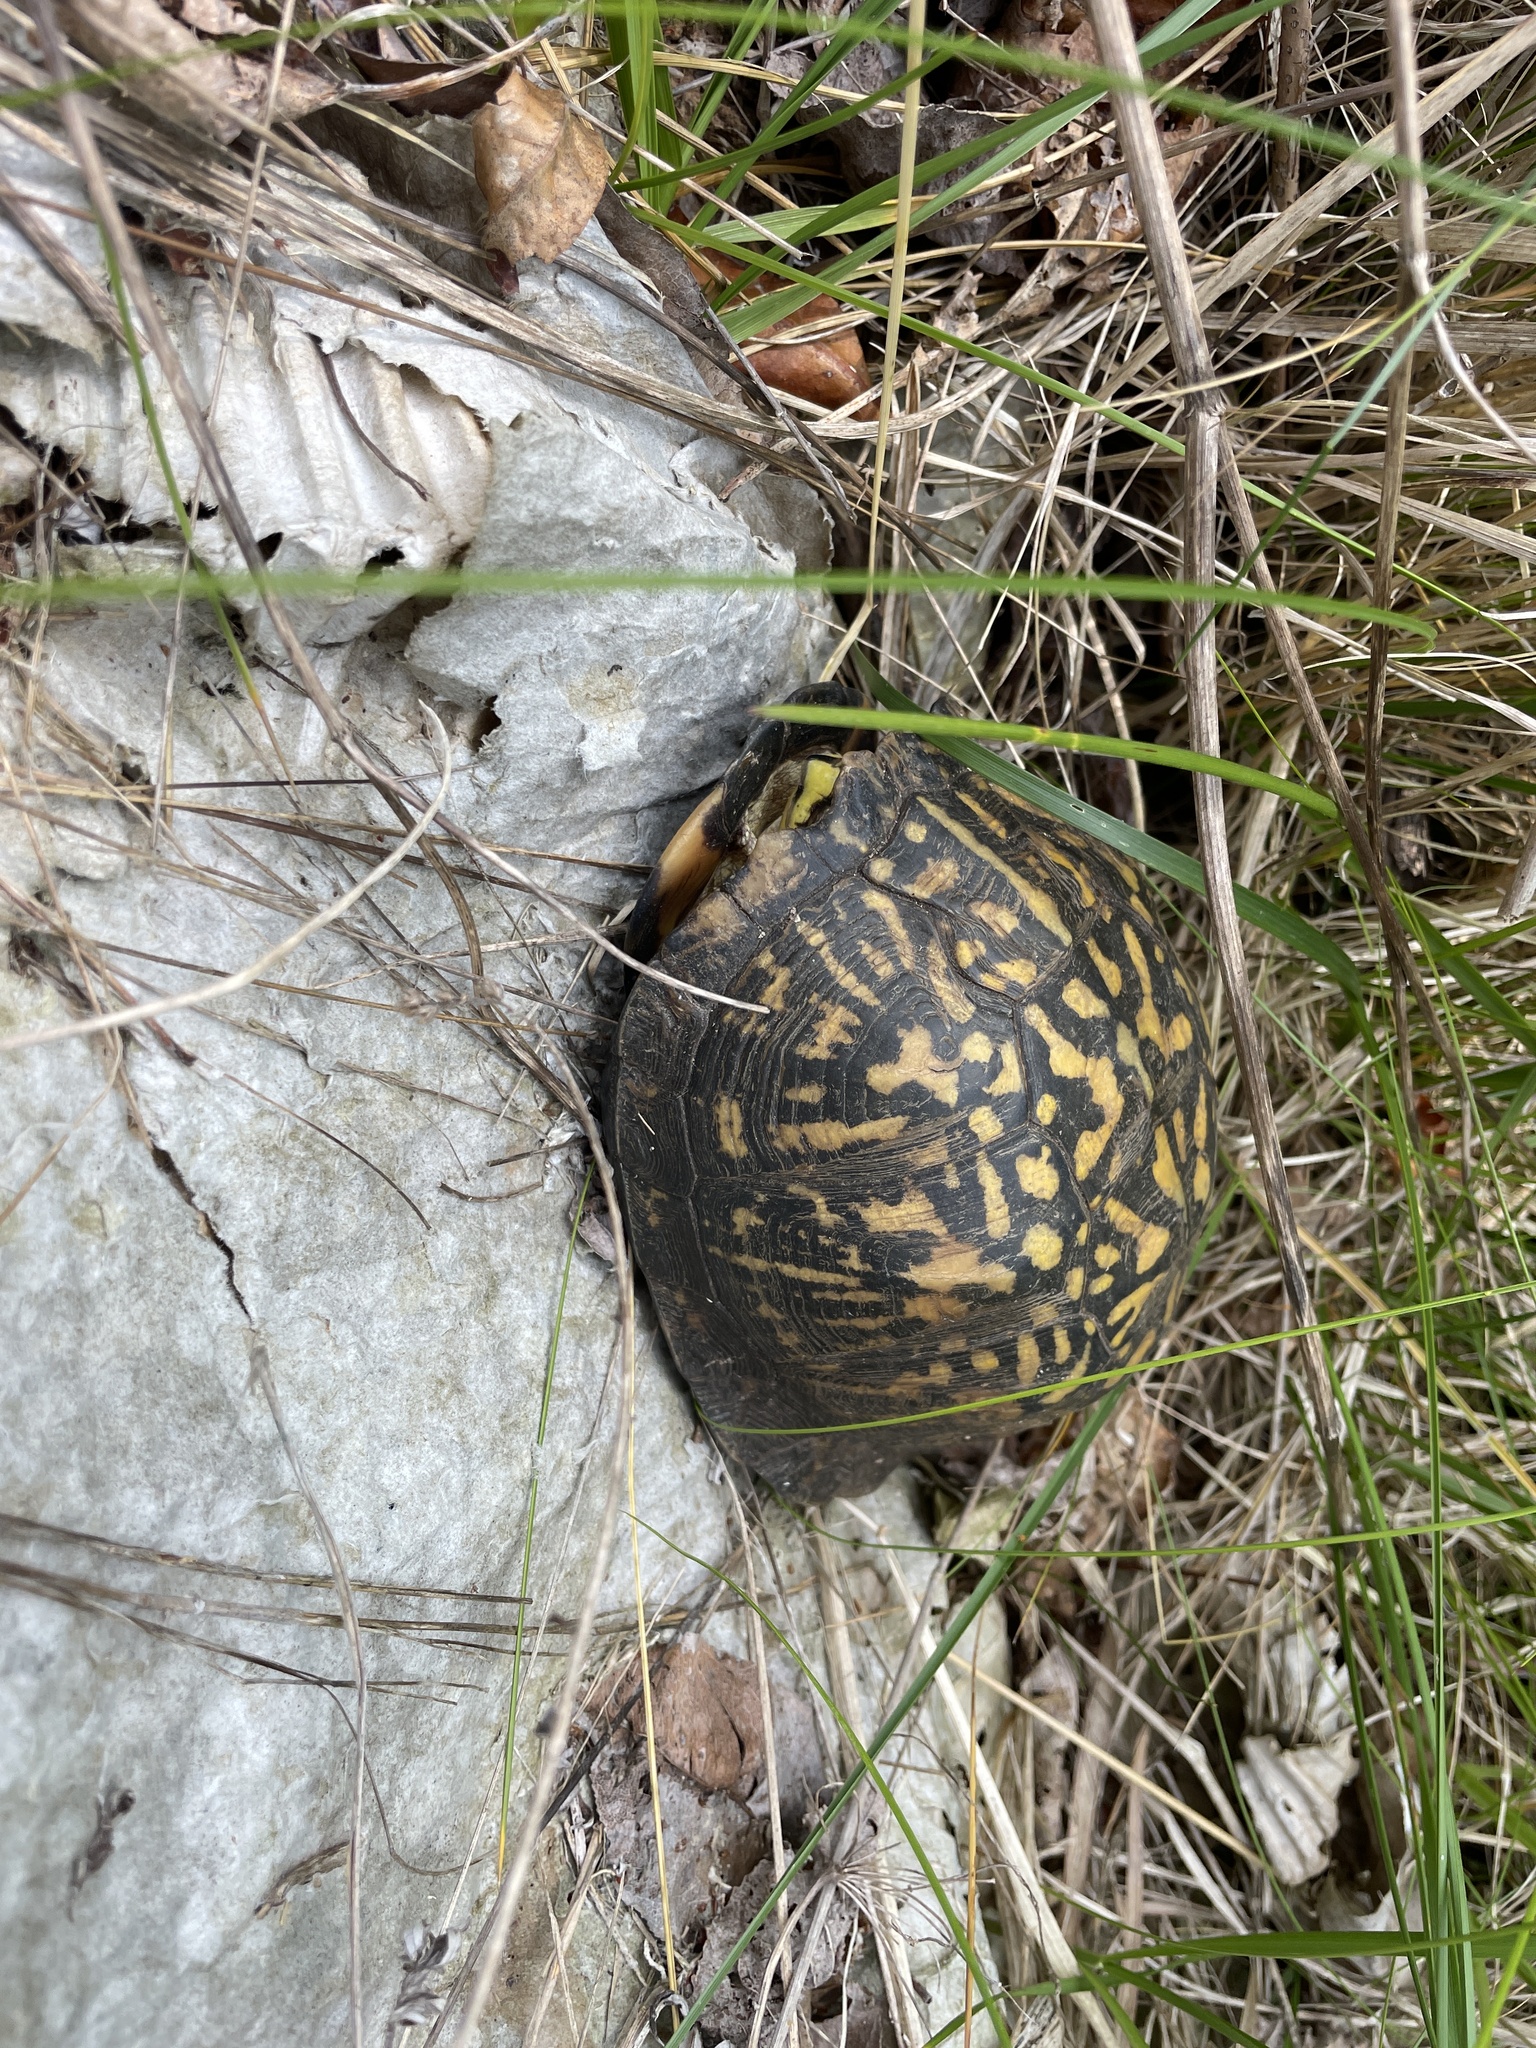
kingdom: Animalia
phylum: Chordata
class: Testudines
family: Emydidae
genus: Terrapene
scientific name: Terrapene carolina
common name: Common box turtle
